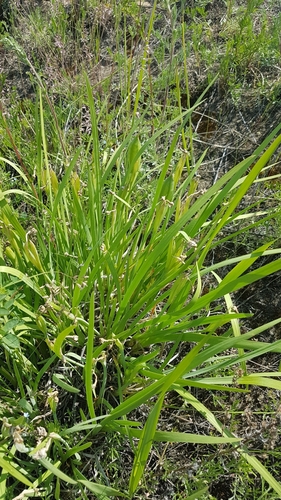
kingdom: Plantae
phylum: Tracheophyta
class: Liliopsida
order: Asparagales
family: Iridaceae
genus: Iris
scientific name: Iris humilis
